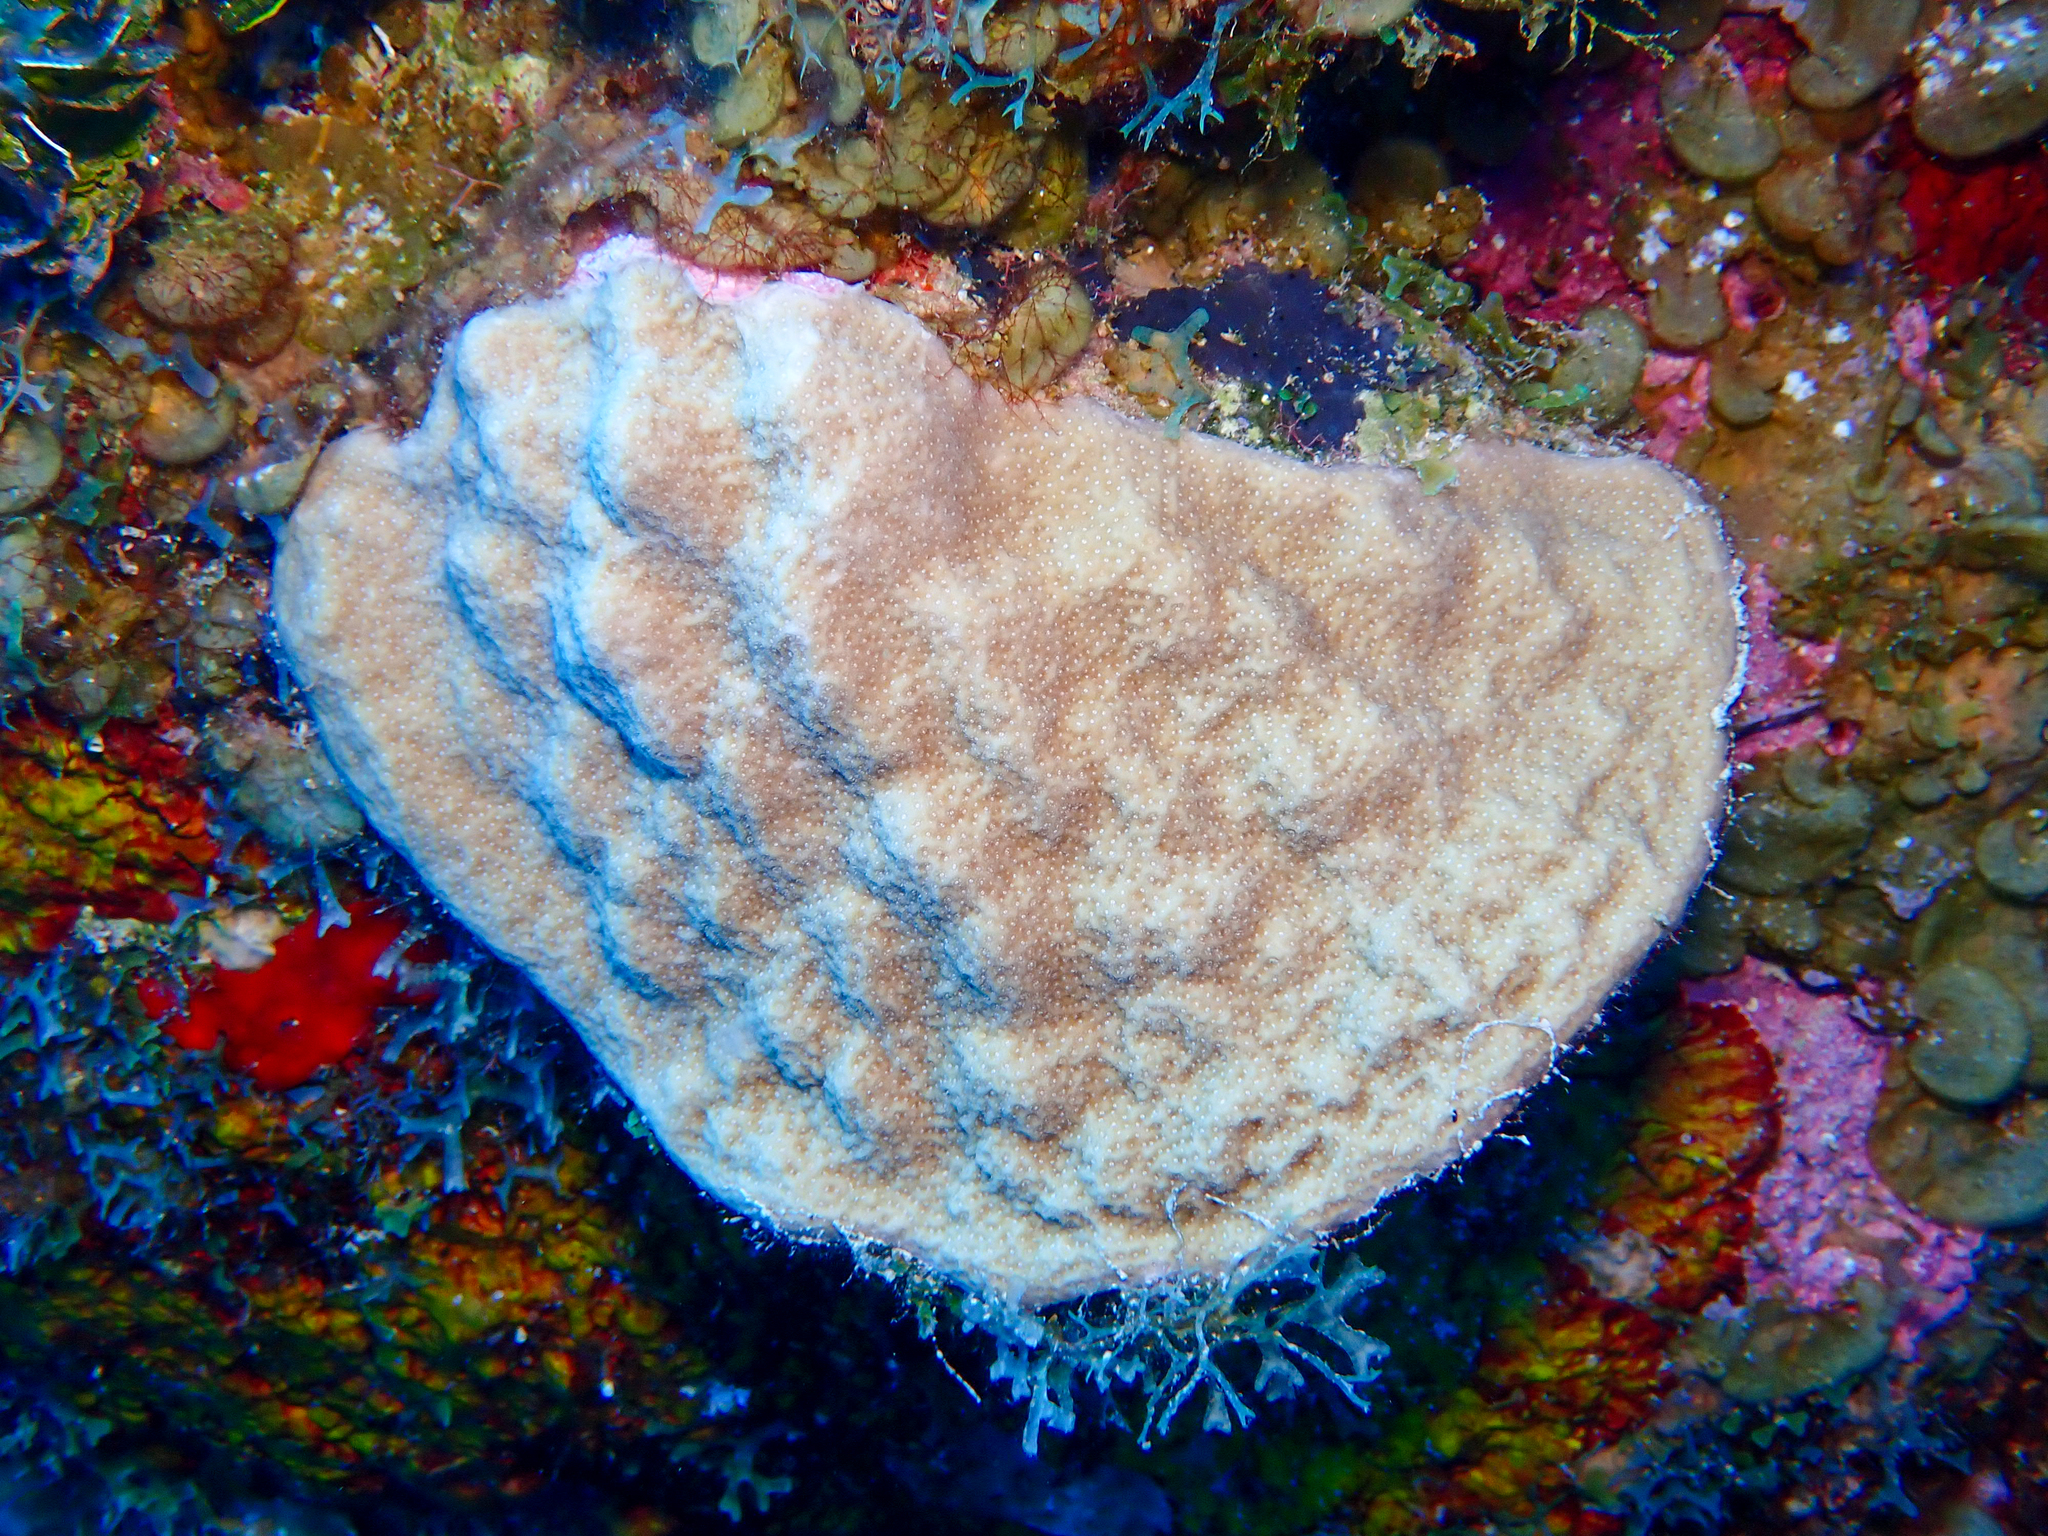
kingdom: Animalia
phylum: Cnidaria
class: Anthozoa
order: Scleractinia
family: Poritidae
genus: Porites
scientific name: Porites astreoides
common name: Mustard hill coral
